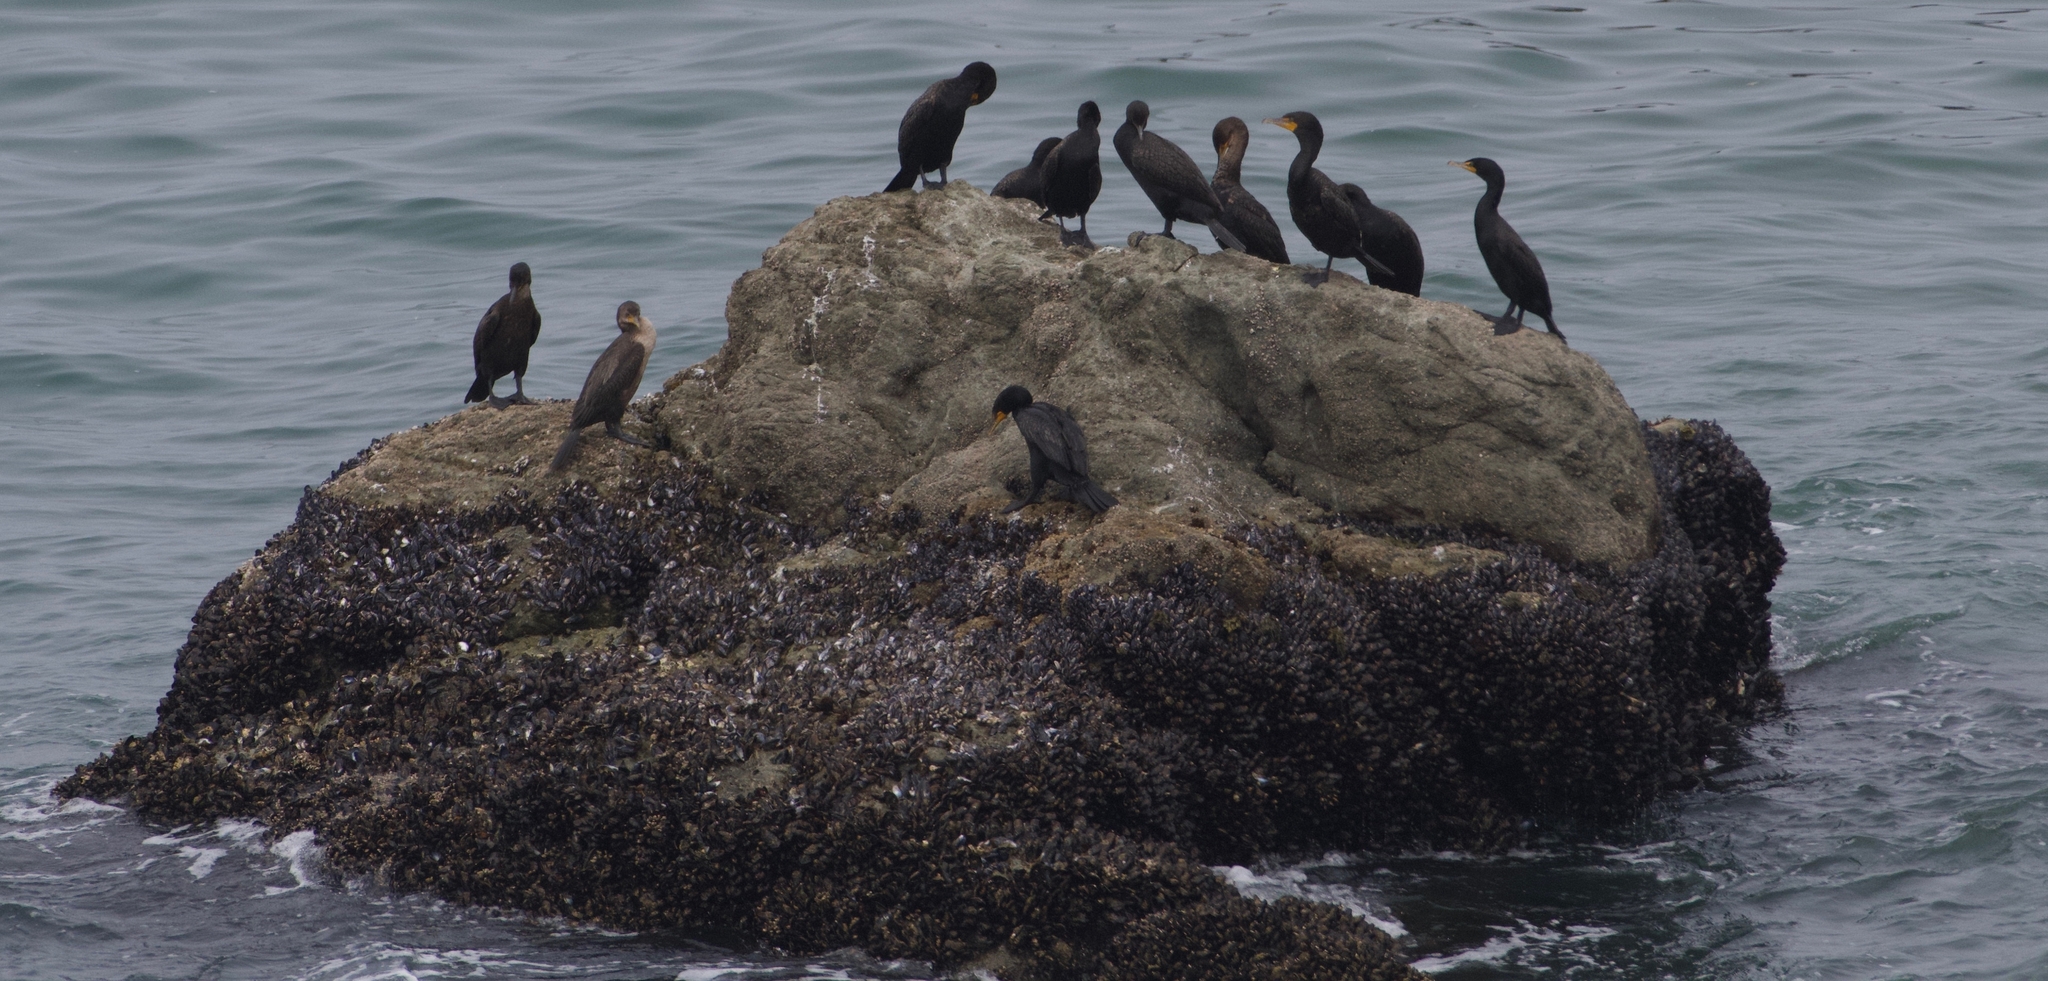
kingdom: Animalia
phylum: Chordata
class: Aves
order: Suliformes
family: Phalacrocoracidae
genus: Phalacrocorax
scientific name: Phalacrocorax auritus
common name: Double-crested cormorant
